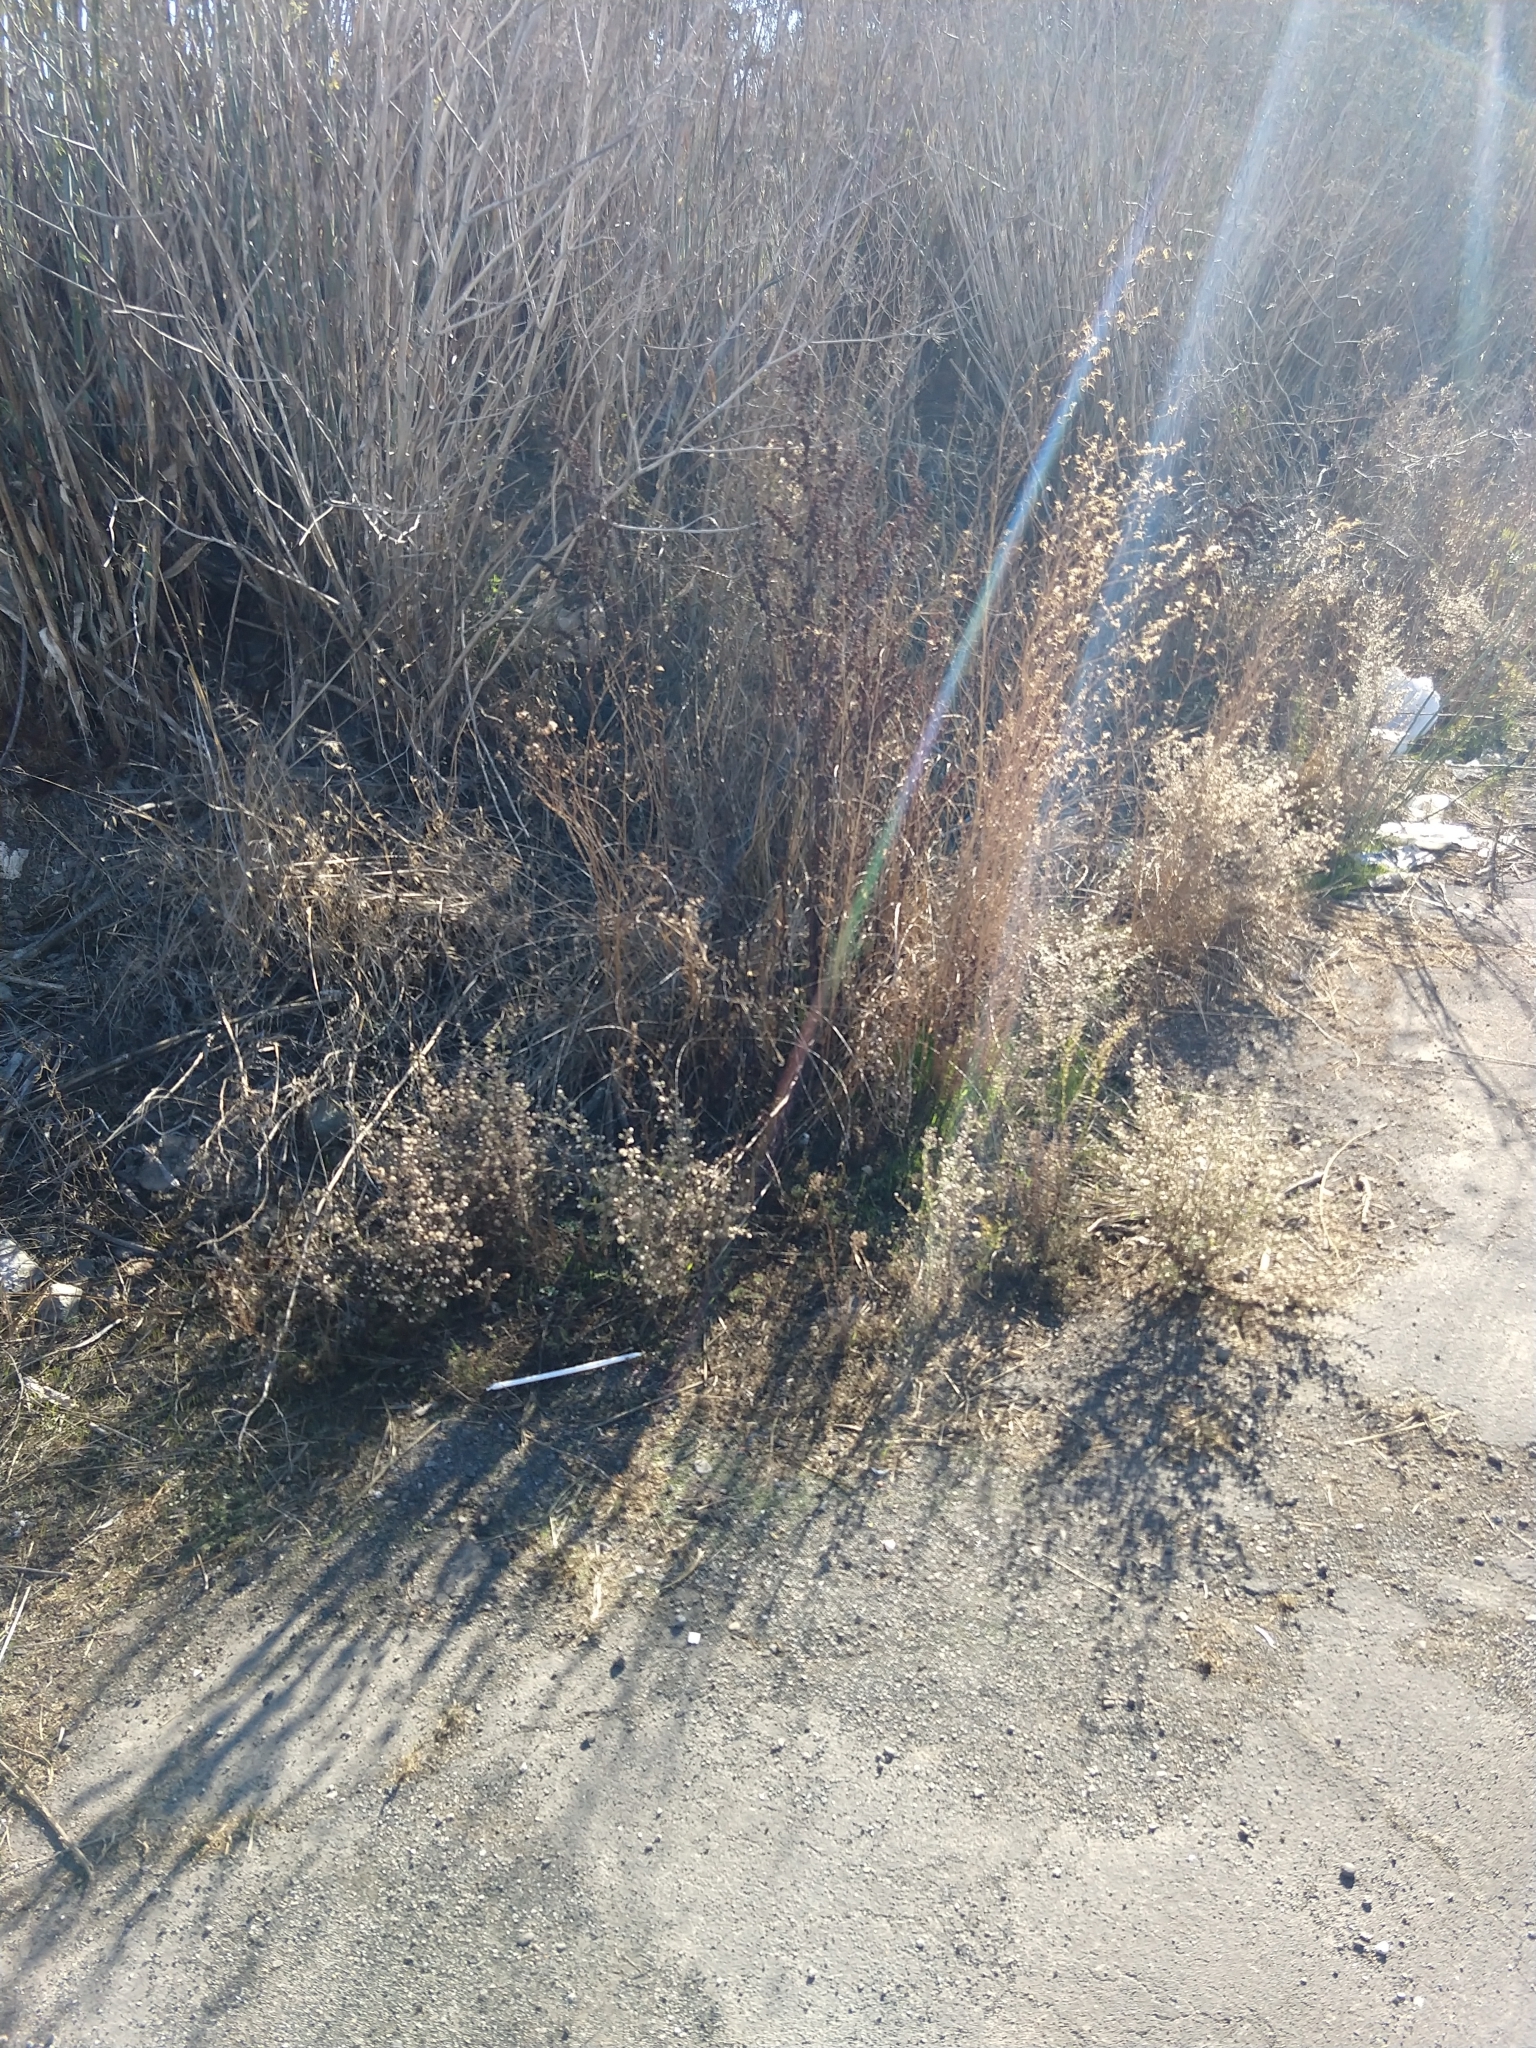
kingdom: Plantae
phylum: Tracheophyta
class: Magnoliopsida
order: Asterales
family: Asteraceae
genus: Dittrichia
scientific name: Dittrichia graveolens
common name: Stinking fleabane
